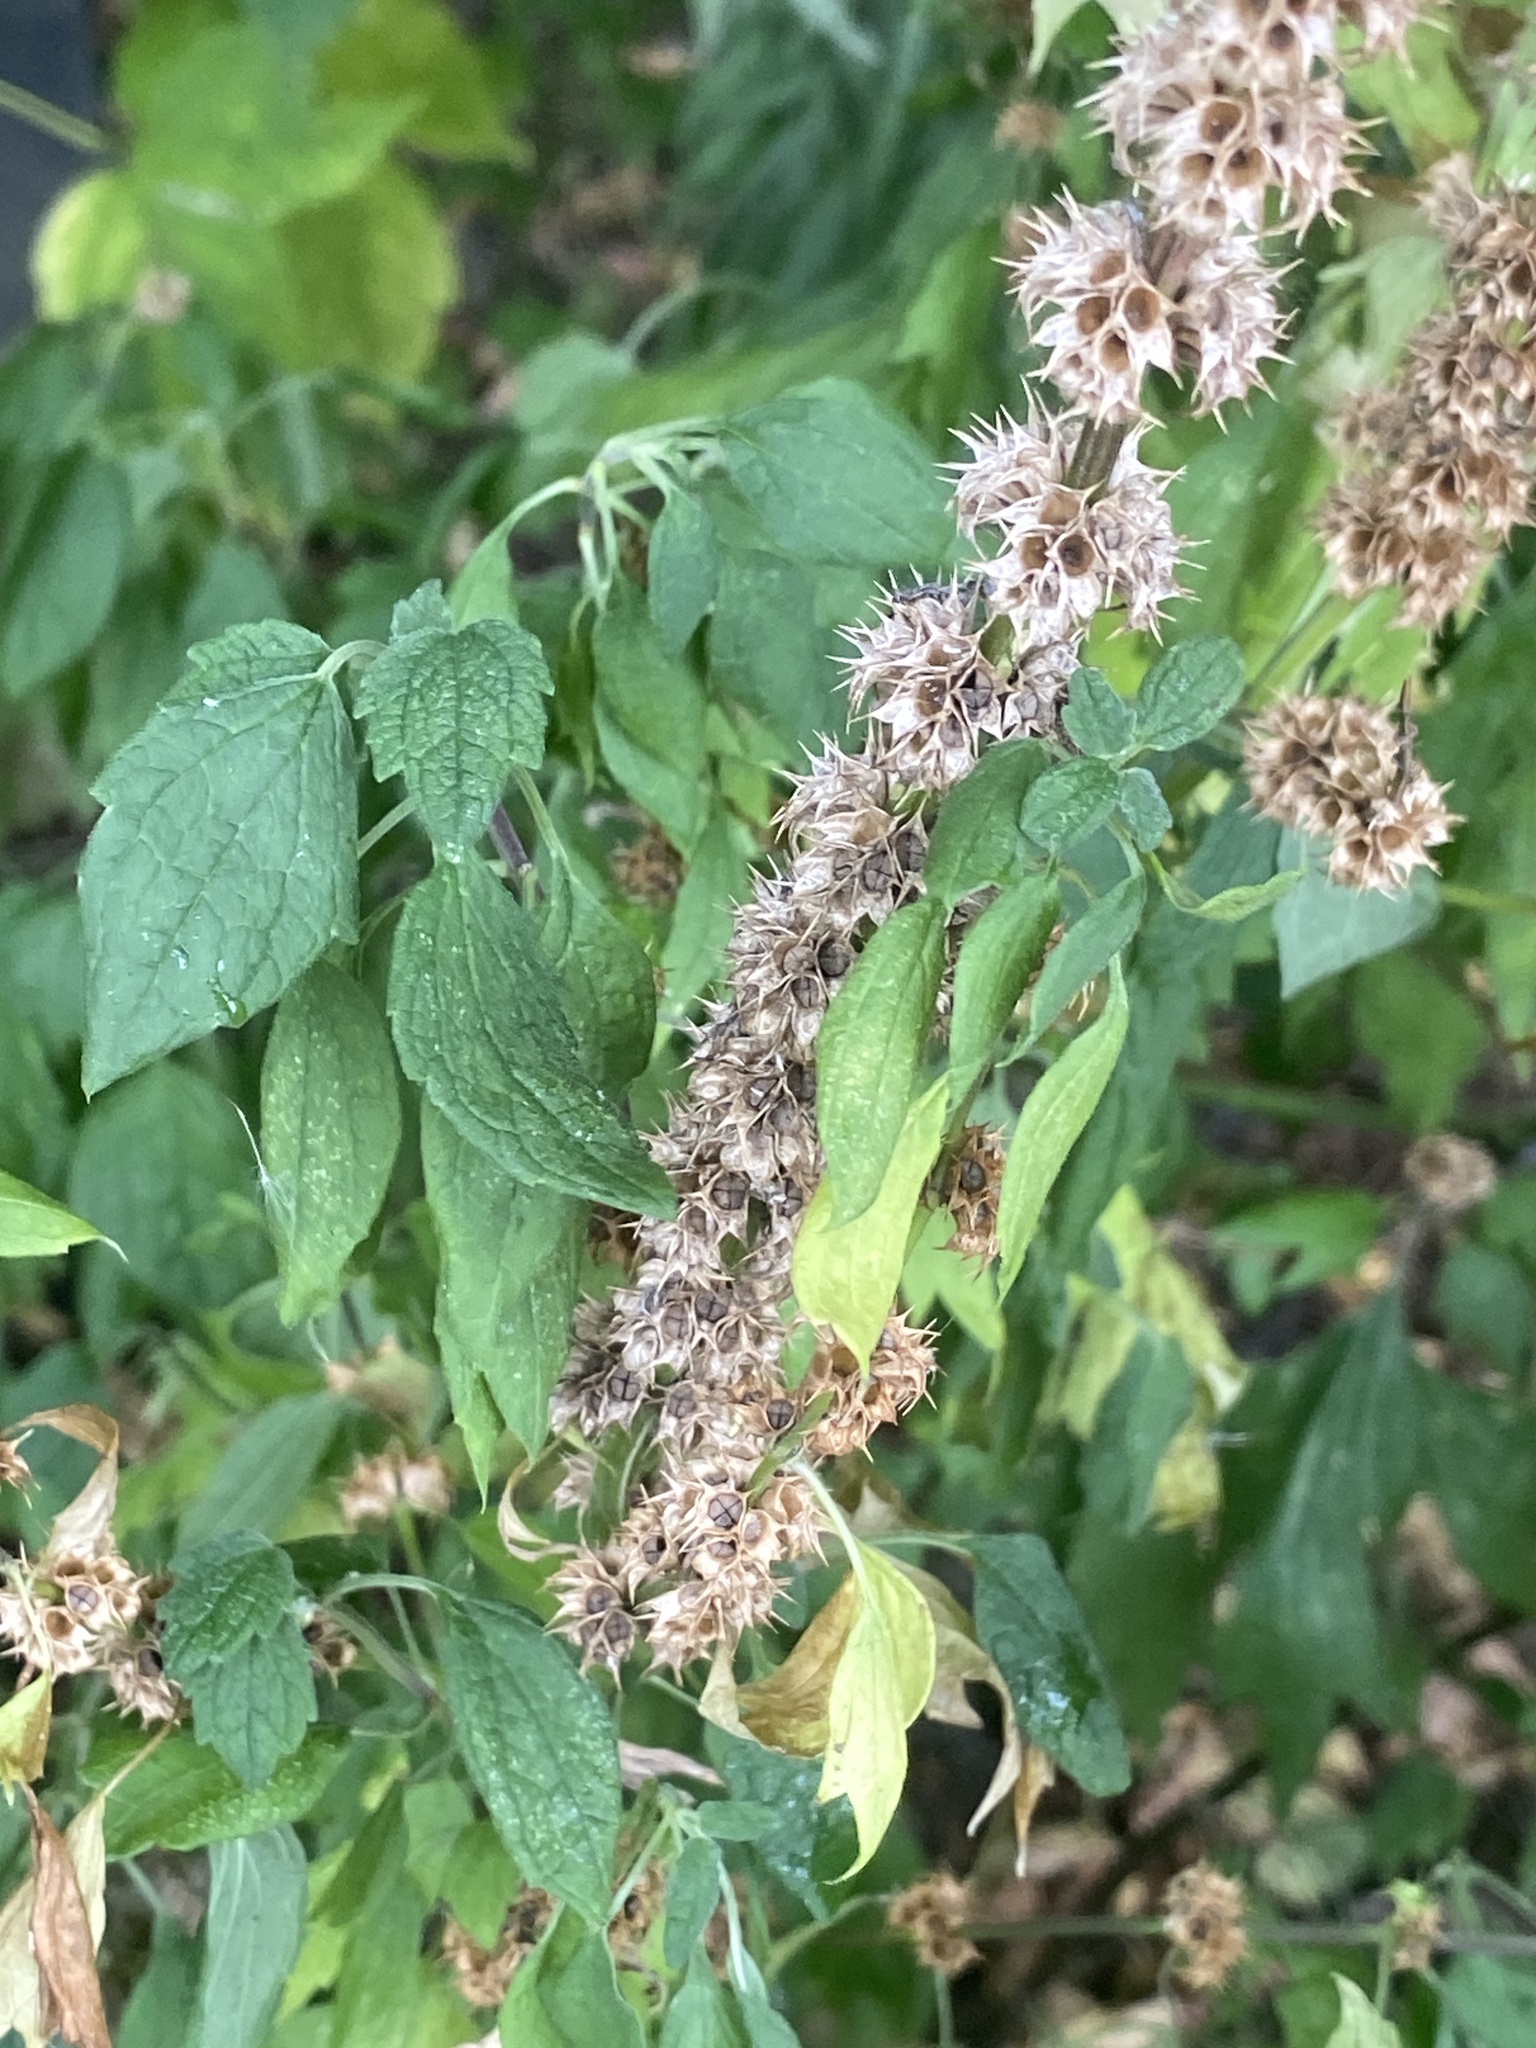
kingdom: Plantae
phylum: Tracheophyta
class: Magnoliopsida
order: Lamiales
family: Lamiaceae
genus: Leonurus
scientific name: Leonurus cardiaca
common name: Motherwort
